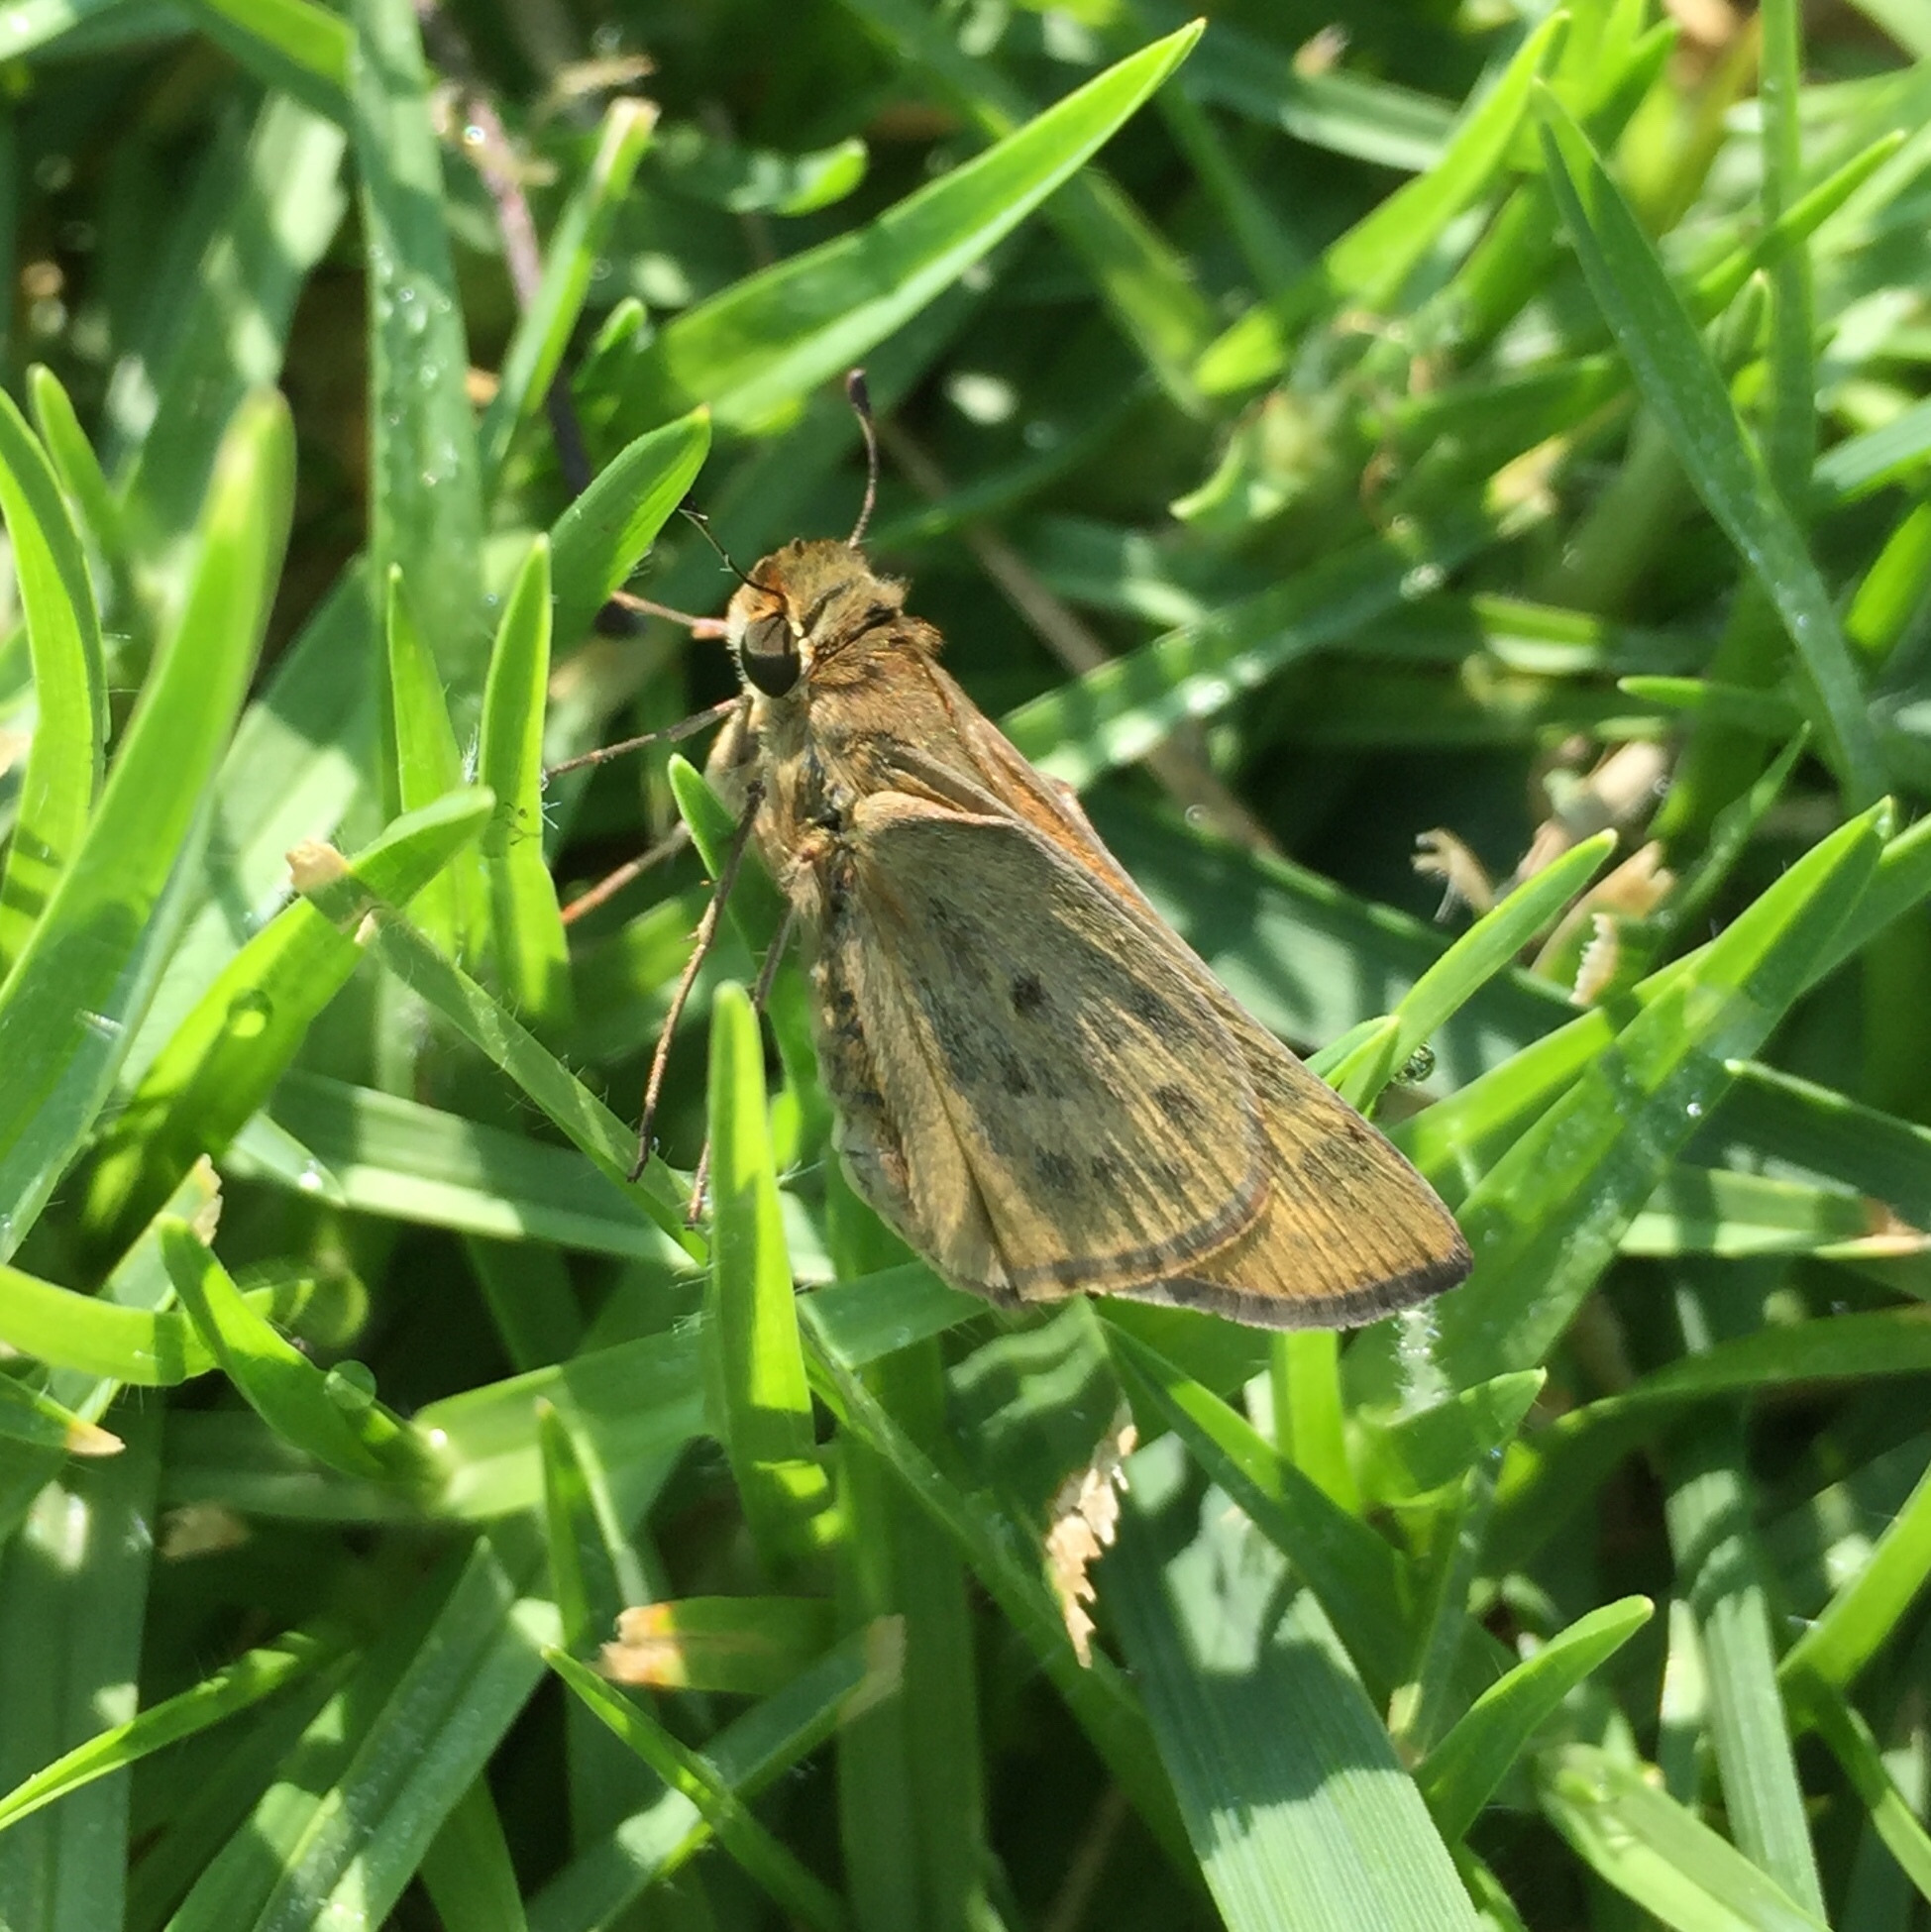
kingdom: Animalia
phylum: Arthropoda
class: Insecta
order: Lepidoptera
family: Hesperiidae
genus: Hylephila
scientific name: Hylephila phyleus
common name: Fiery skipper
